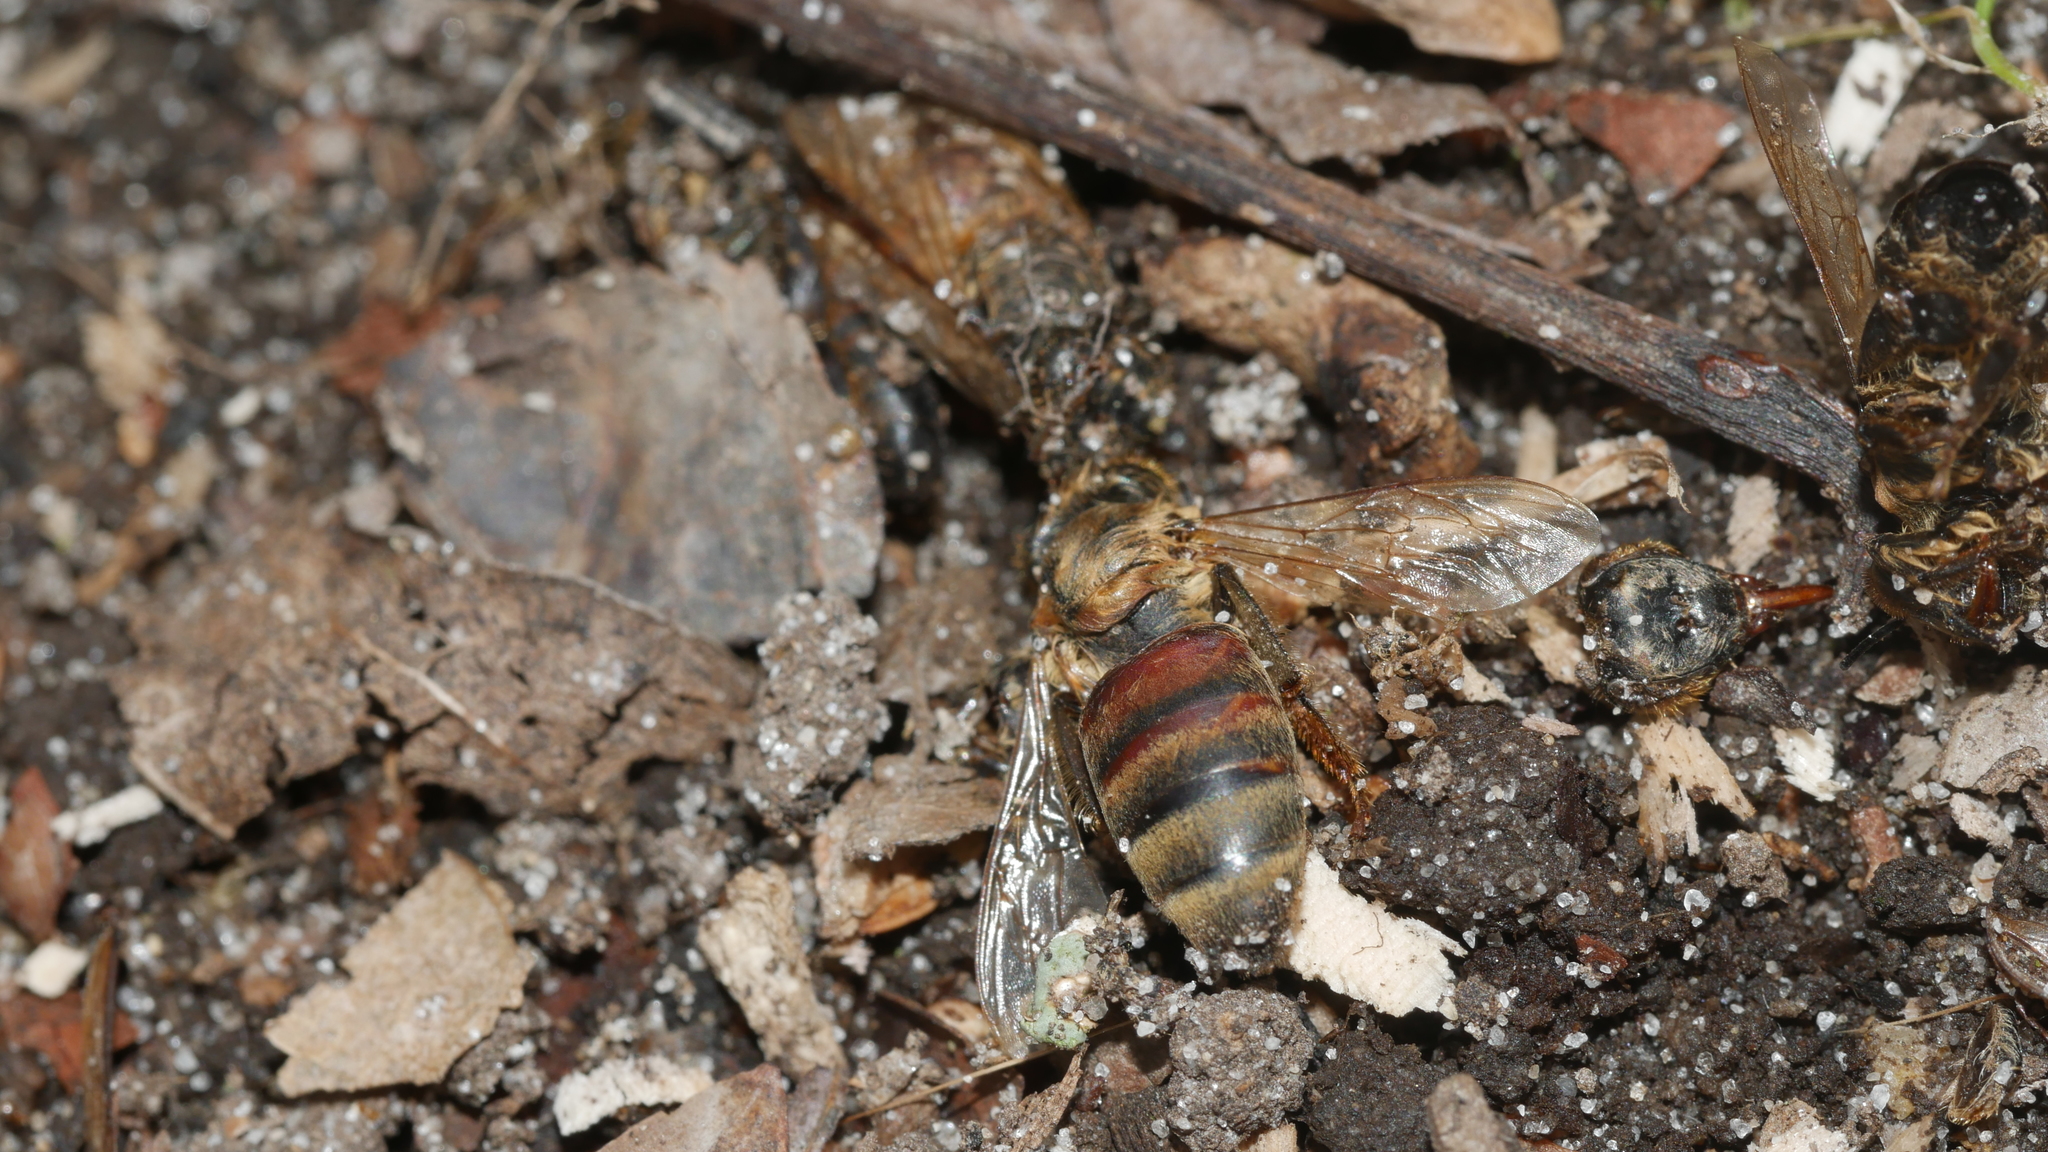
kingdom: Animalia
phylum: Arthropoda
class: Insecta
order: Hymenoptera
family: Apidae
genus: Apis
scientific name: Apis mellifera
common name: Honey bee
